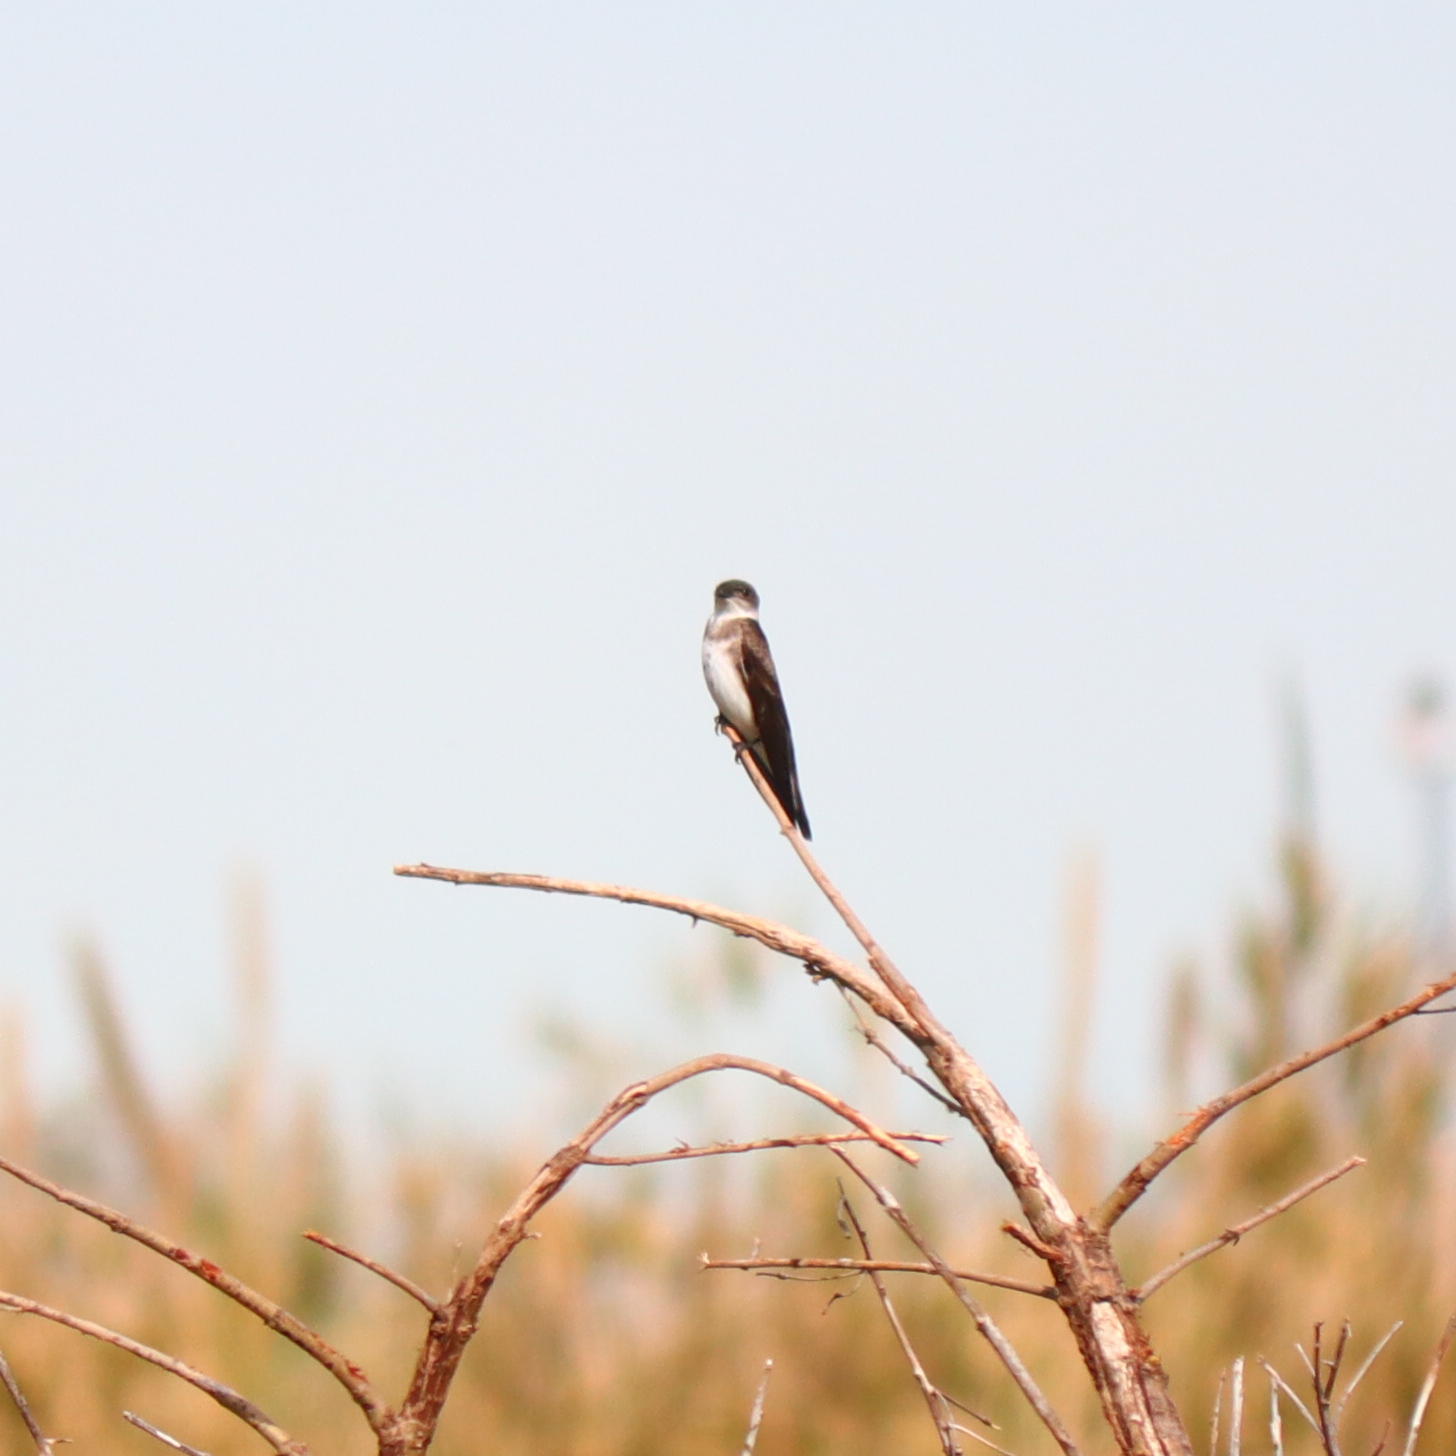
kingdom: Animalia
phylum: Chordata
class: Aves
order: Passeriformes
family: Hirundinidae
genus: Progne
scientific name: Progne tapera
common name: Brown-chested martin
